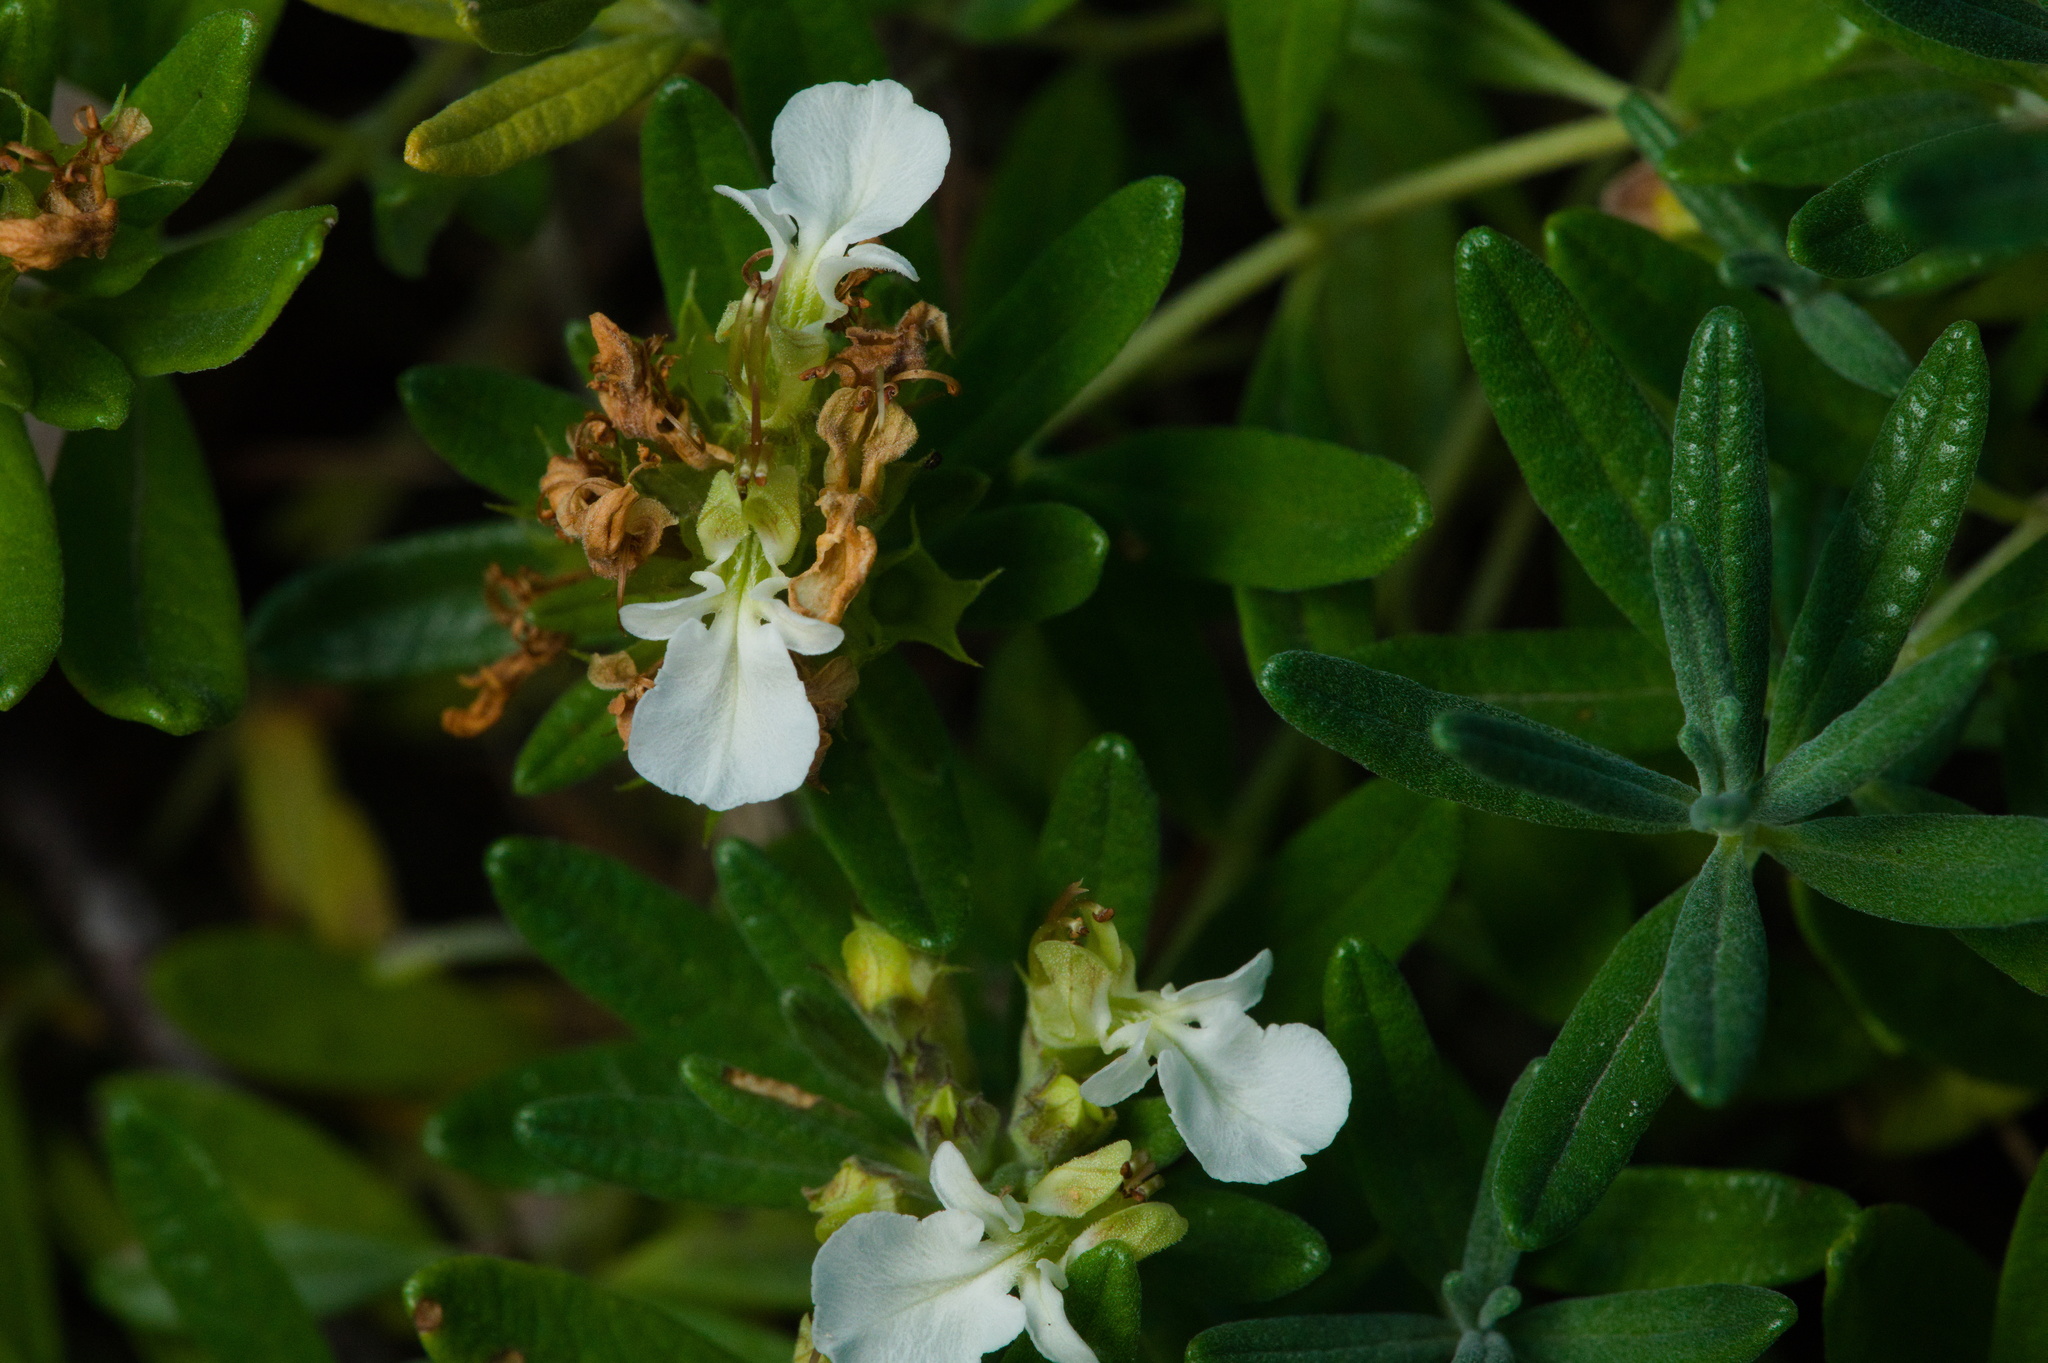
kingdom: Plantae
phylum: Tracheophyta
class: Magnoliopsida
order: Lamiales
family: Lamiaceae
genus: Teucrium
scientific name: Teucrium montanum
